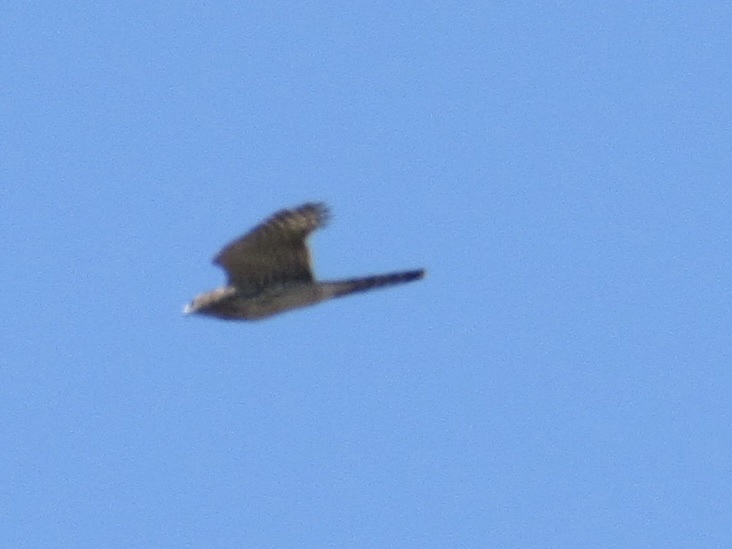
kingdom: Animalia
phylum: Chordata
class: Aves
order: Accipitriformes
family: Accipitridae
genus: Accipiter
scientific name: Accipiter cooperii
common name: Cooper's hawk
